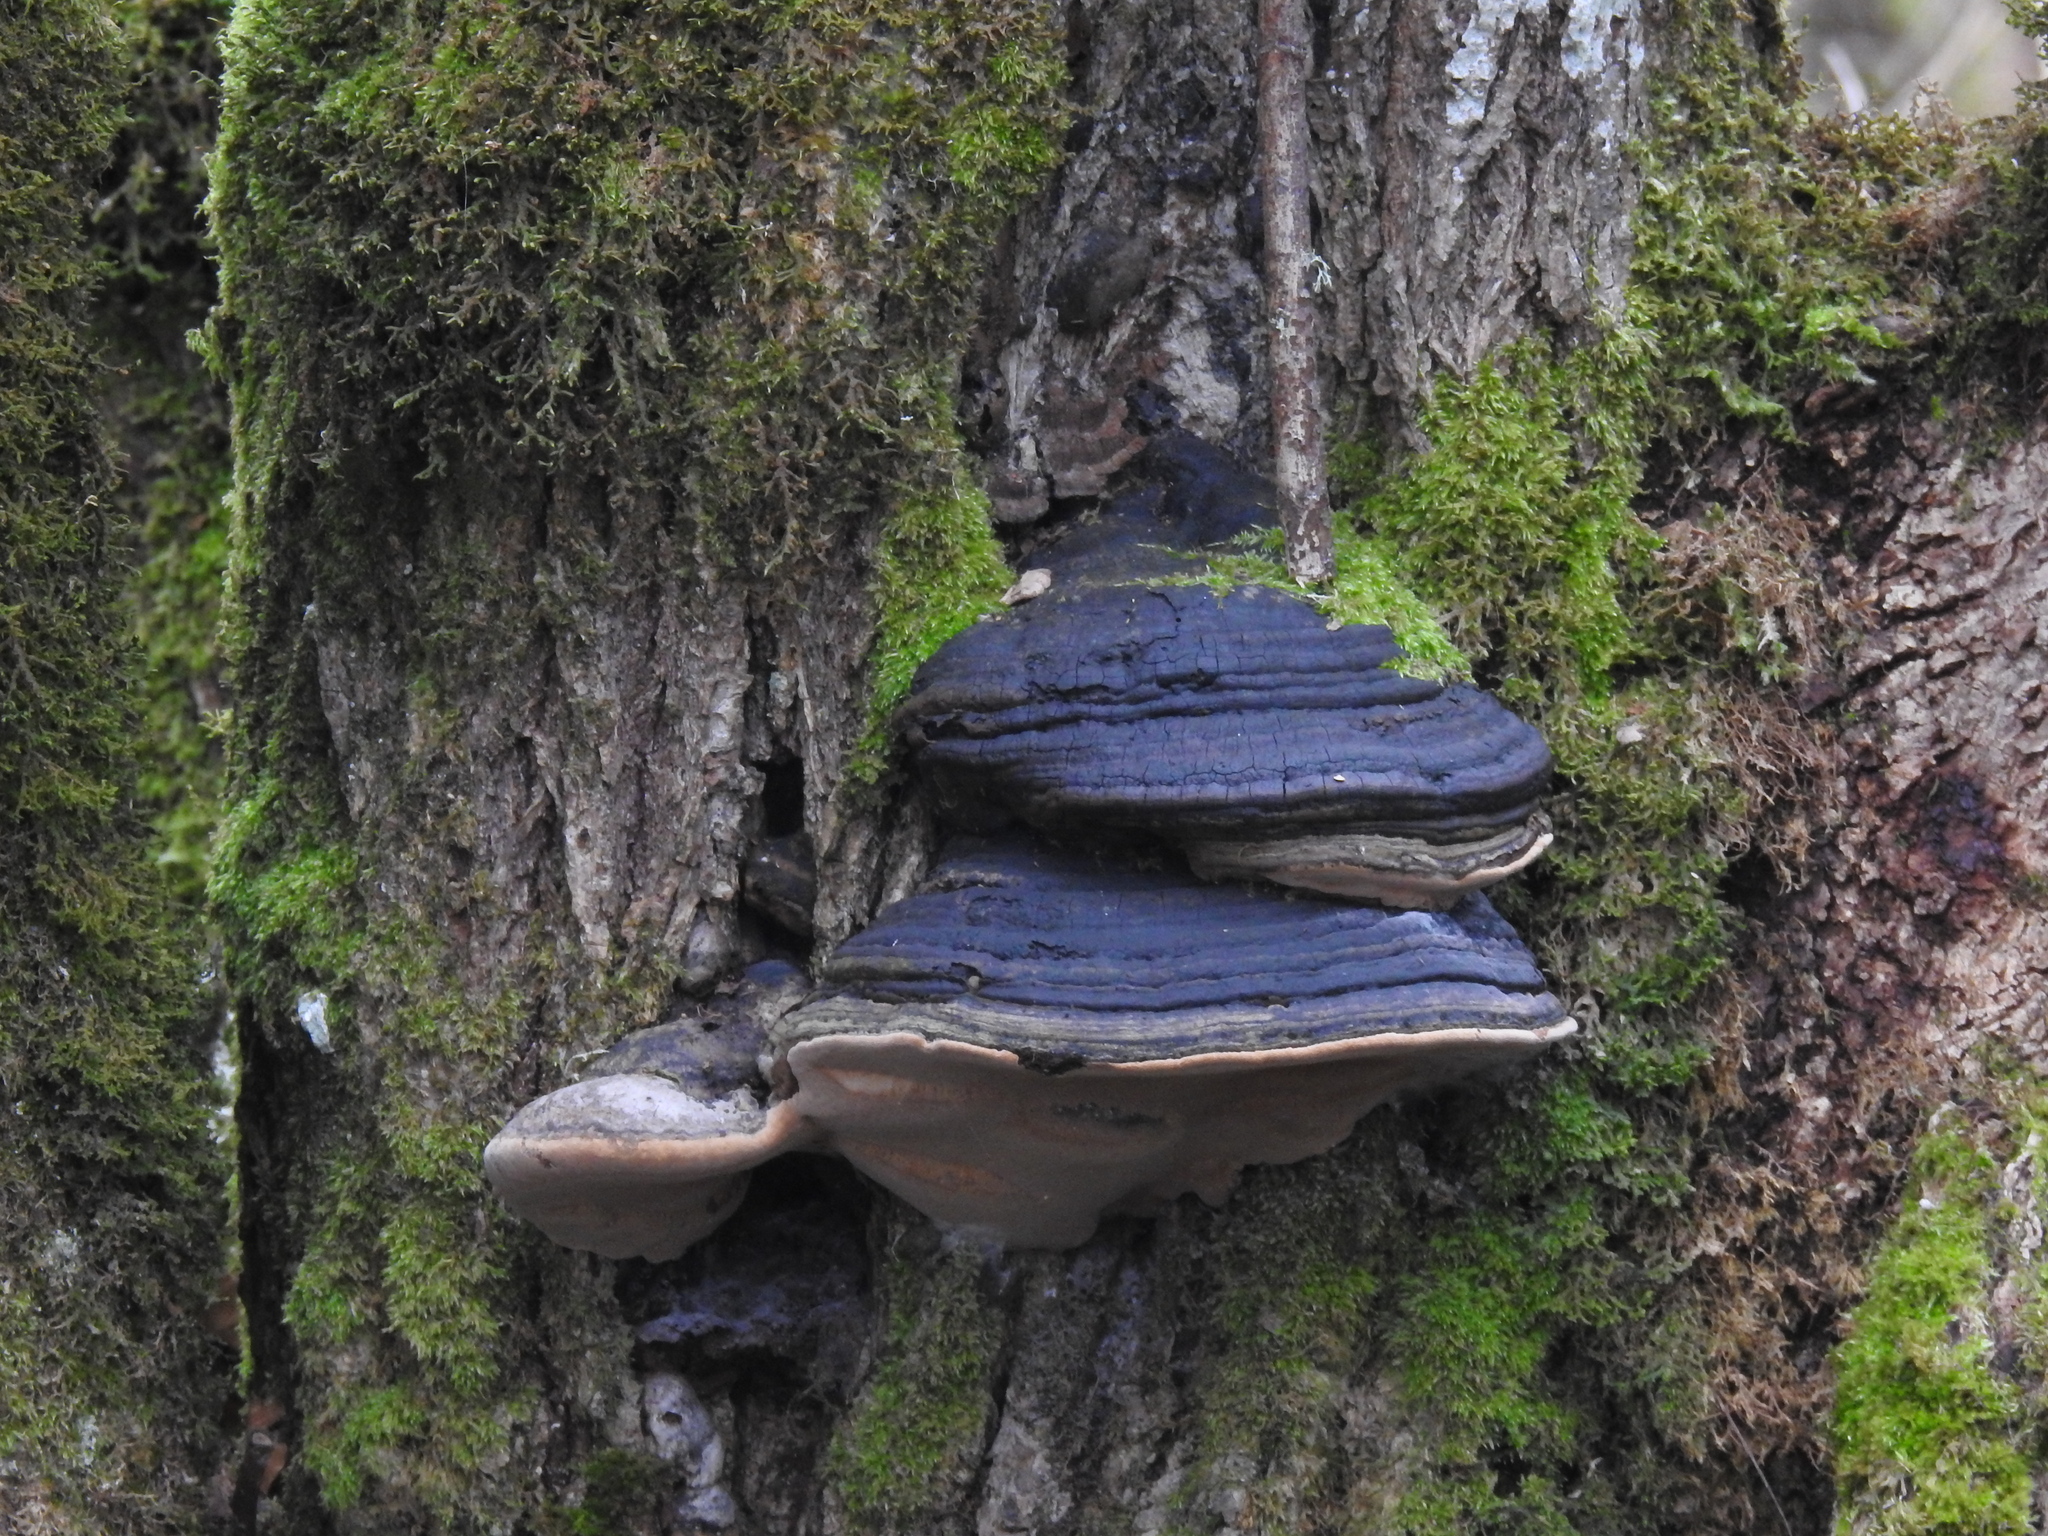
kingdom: Fungi
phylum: Basidiomycota
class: Agaricomycetes
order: Polyporales
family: Fomitopsidaceae
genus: Fomitopsis
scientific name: Fomitopsis ochracea
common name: American brown fomitopsis
